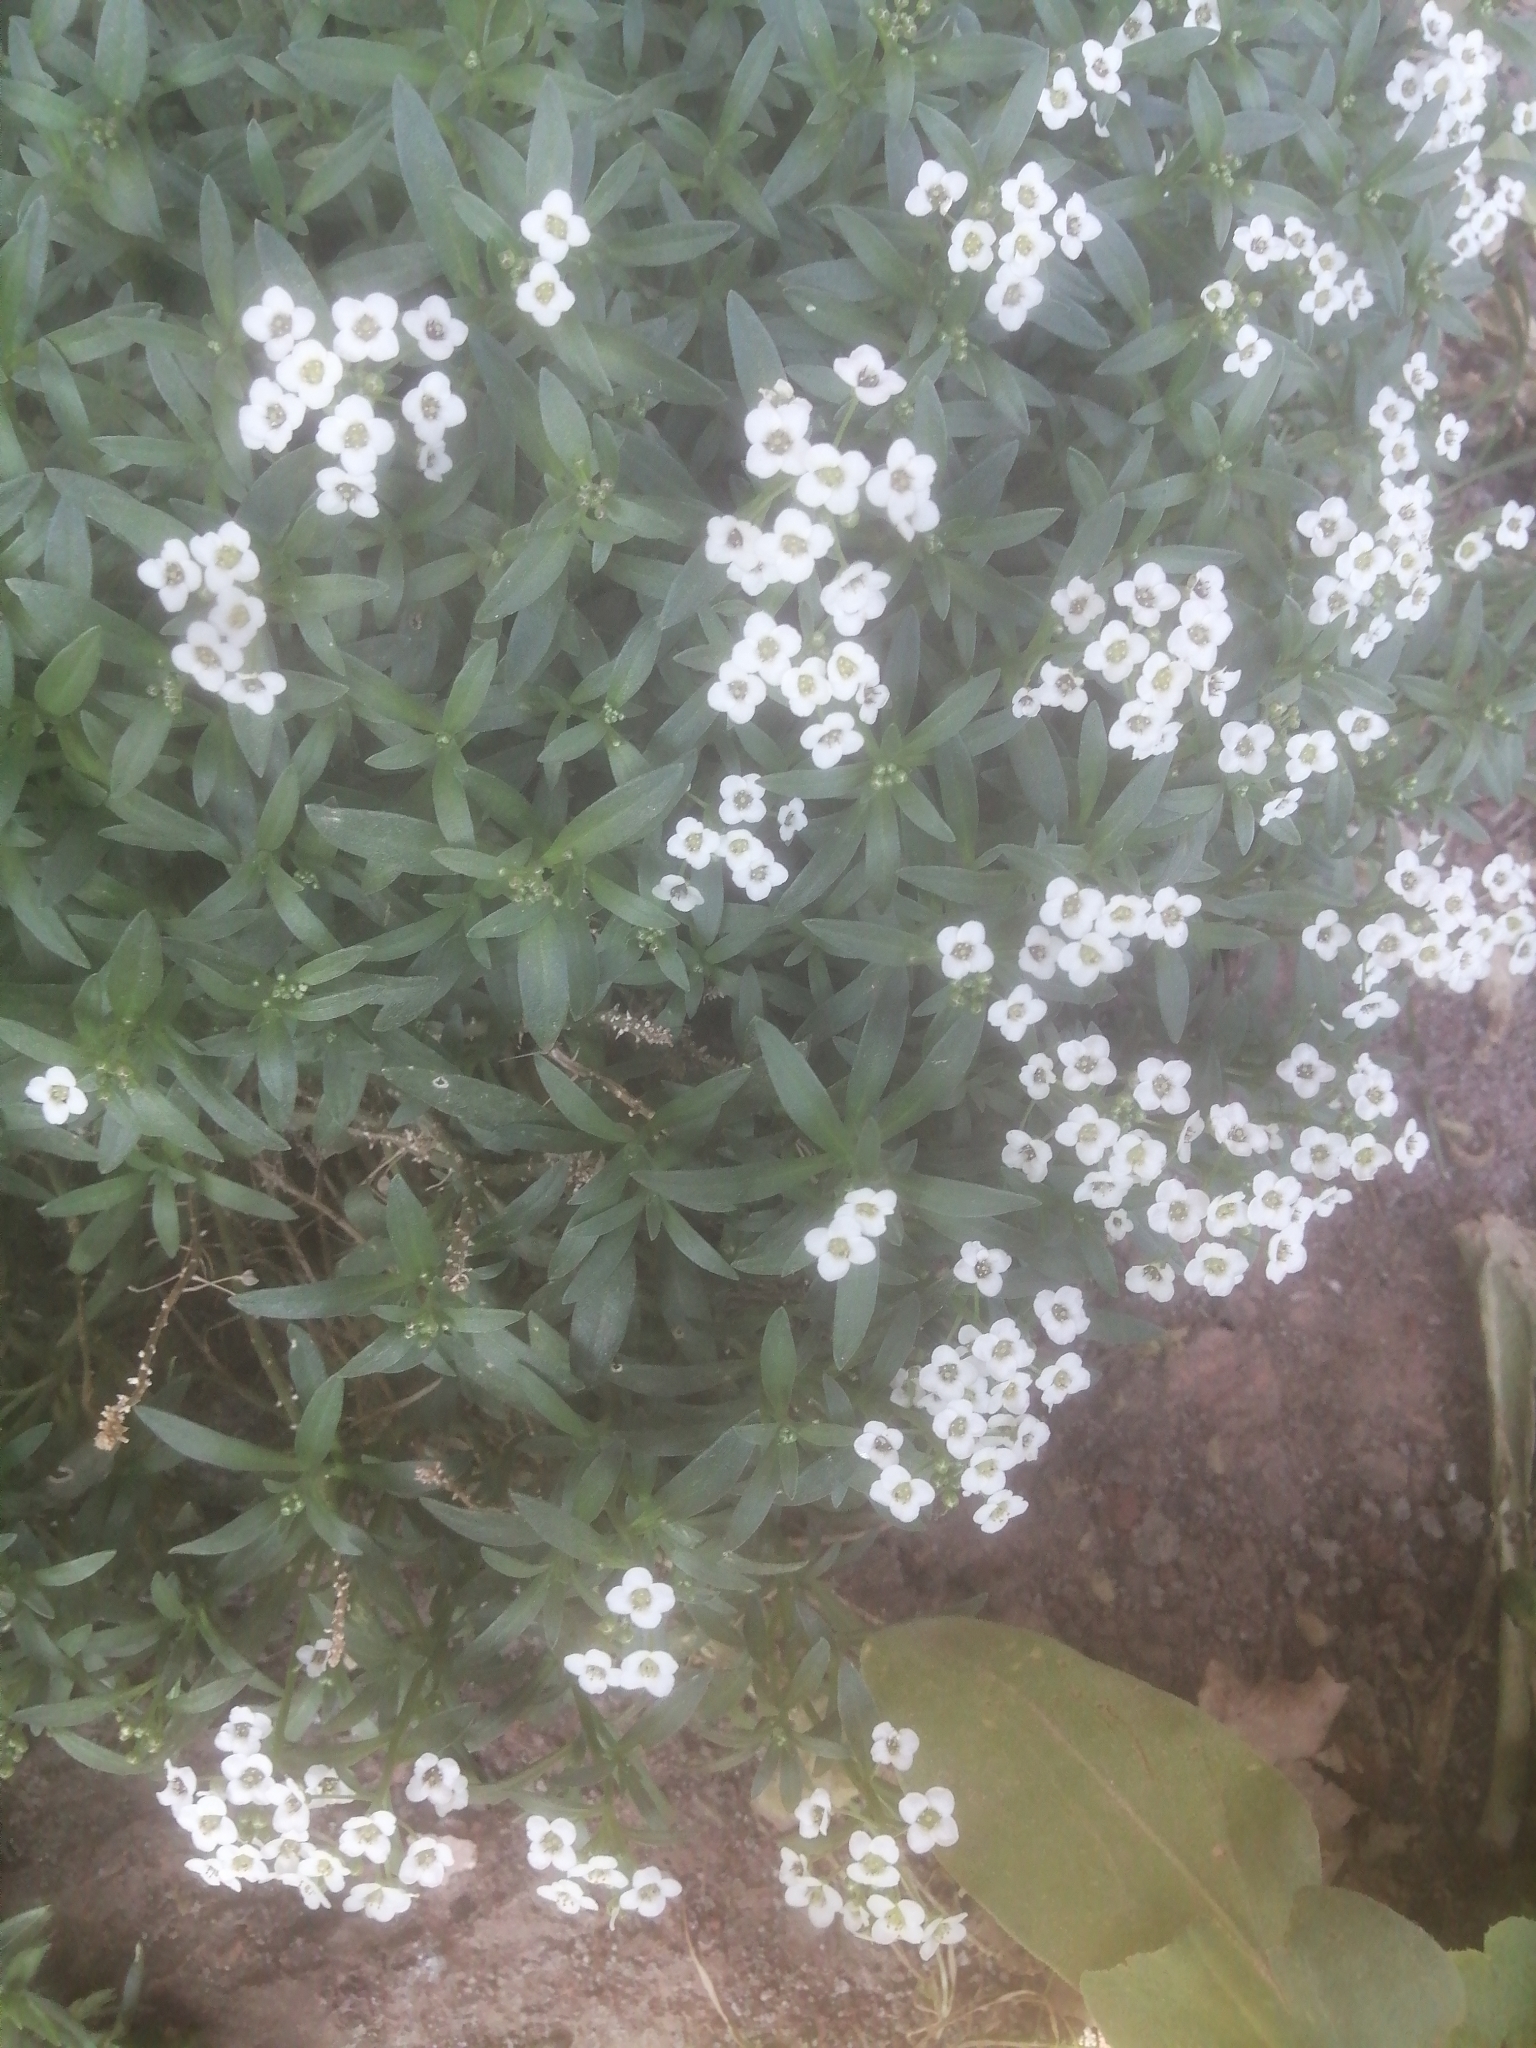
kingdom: Plantae
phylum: Tracheophyta
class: Magnoliopsida
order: Brassicales
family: Brassicaceae
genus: Lobularia
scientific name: Lobularia maritima
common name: Sweet alison
